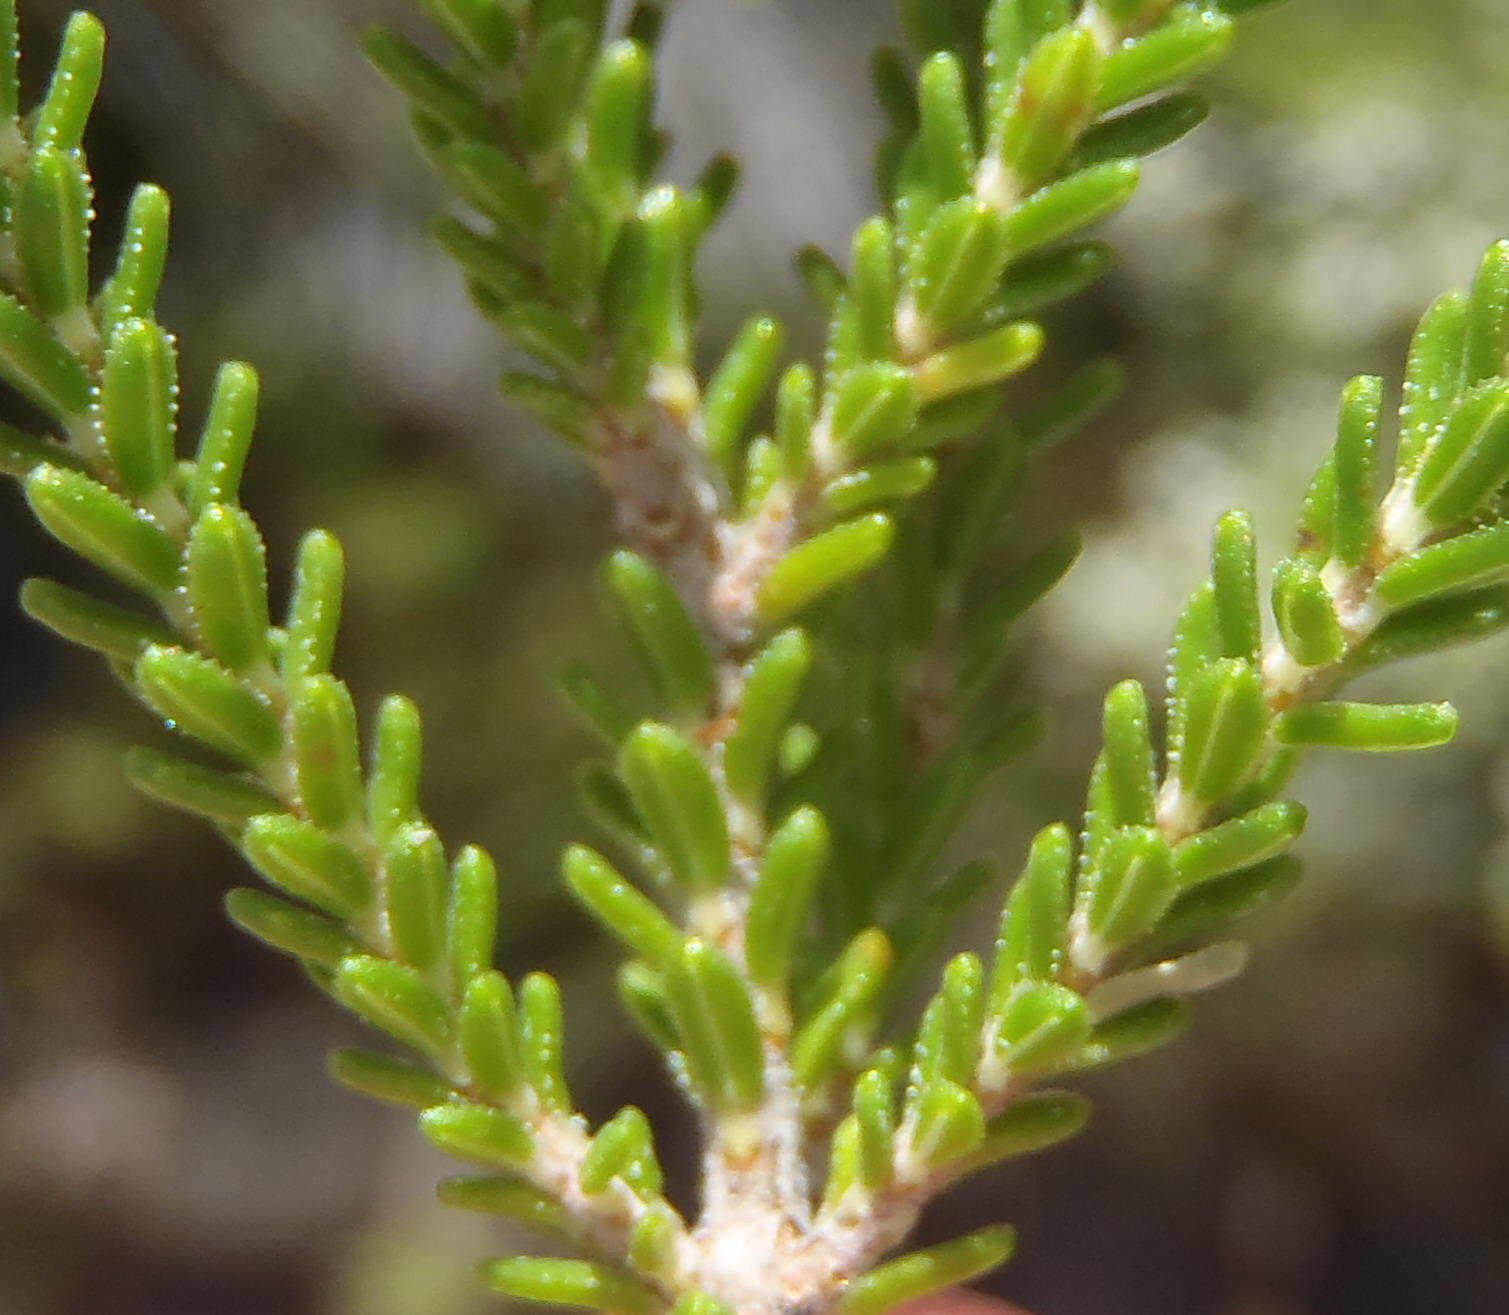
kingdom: Plantae
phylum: Tracheophyta
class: Magnoliopsida
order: Ericales
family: Ericaceae
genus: Erica
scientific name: Erica fimbriata
